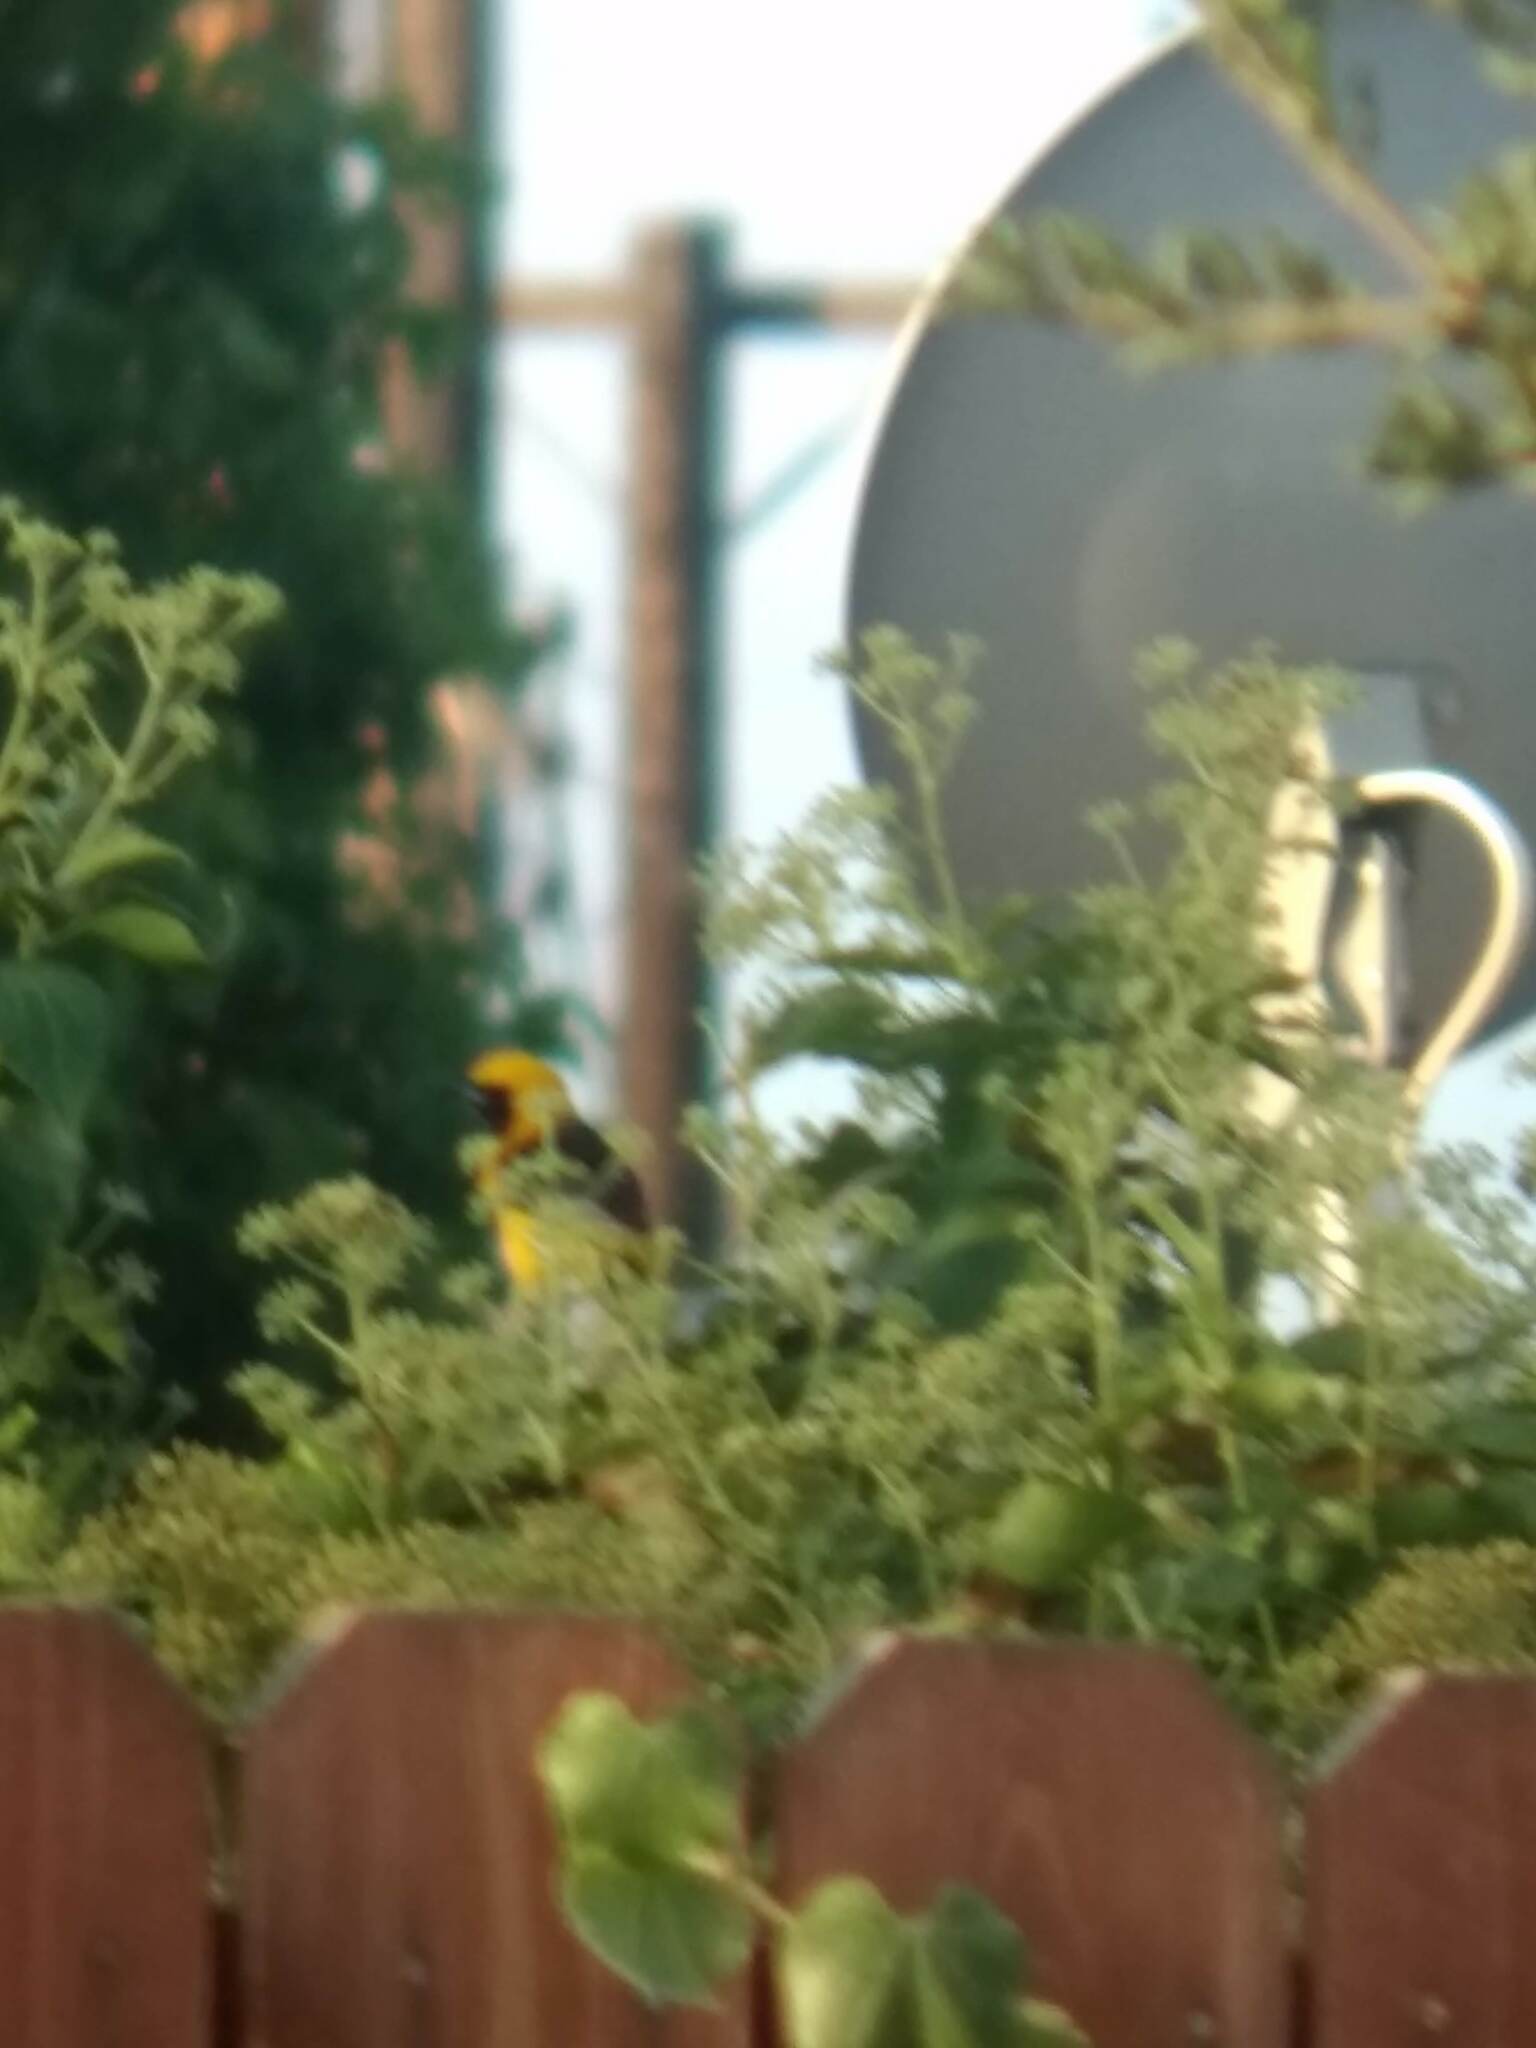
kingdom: Animalia
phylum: Chordata
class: Aves
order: Passeriformes
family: Icteridae
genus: Icterus
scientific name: Icterus cucullatus
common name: Hooded oriole
